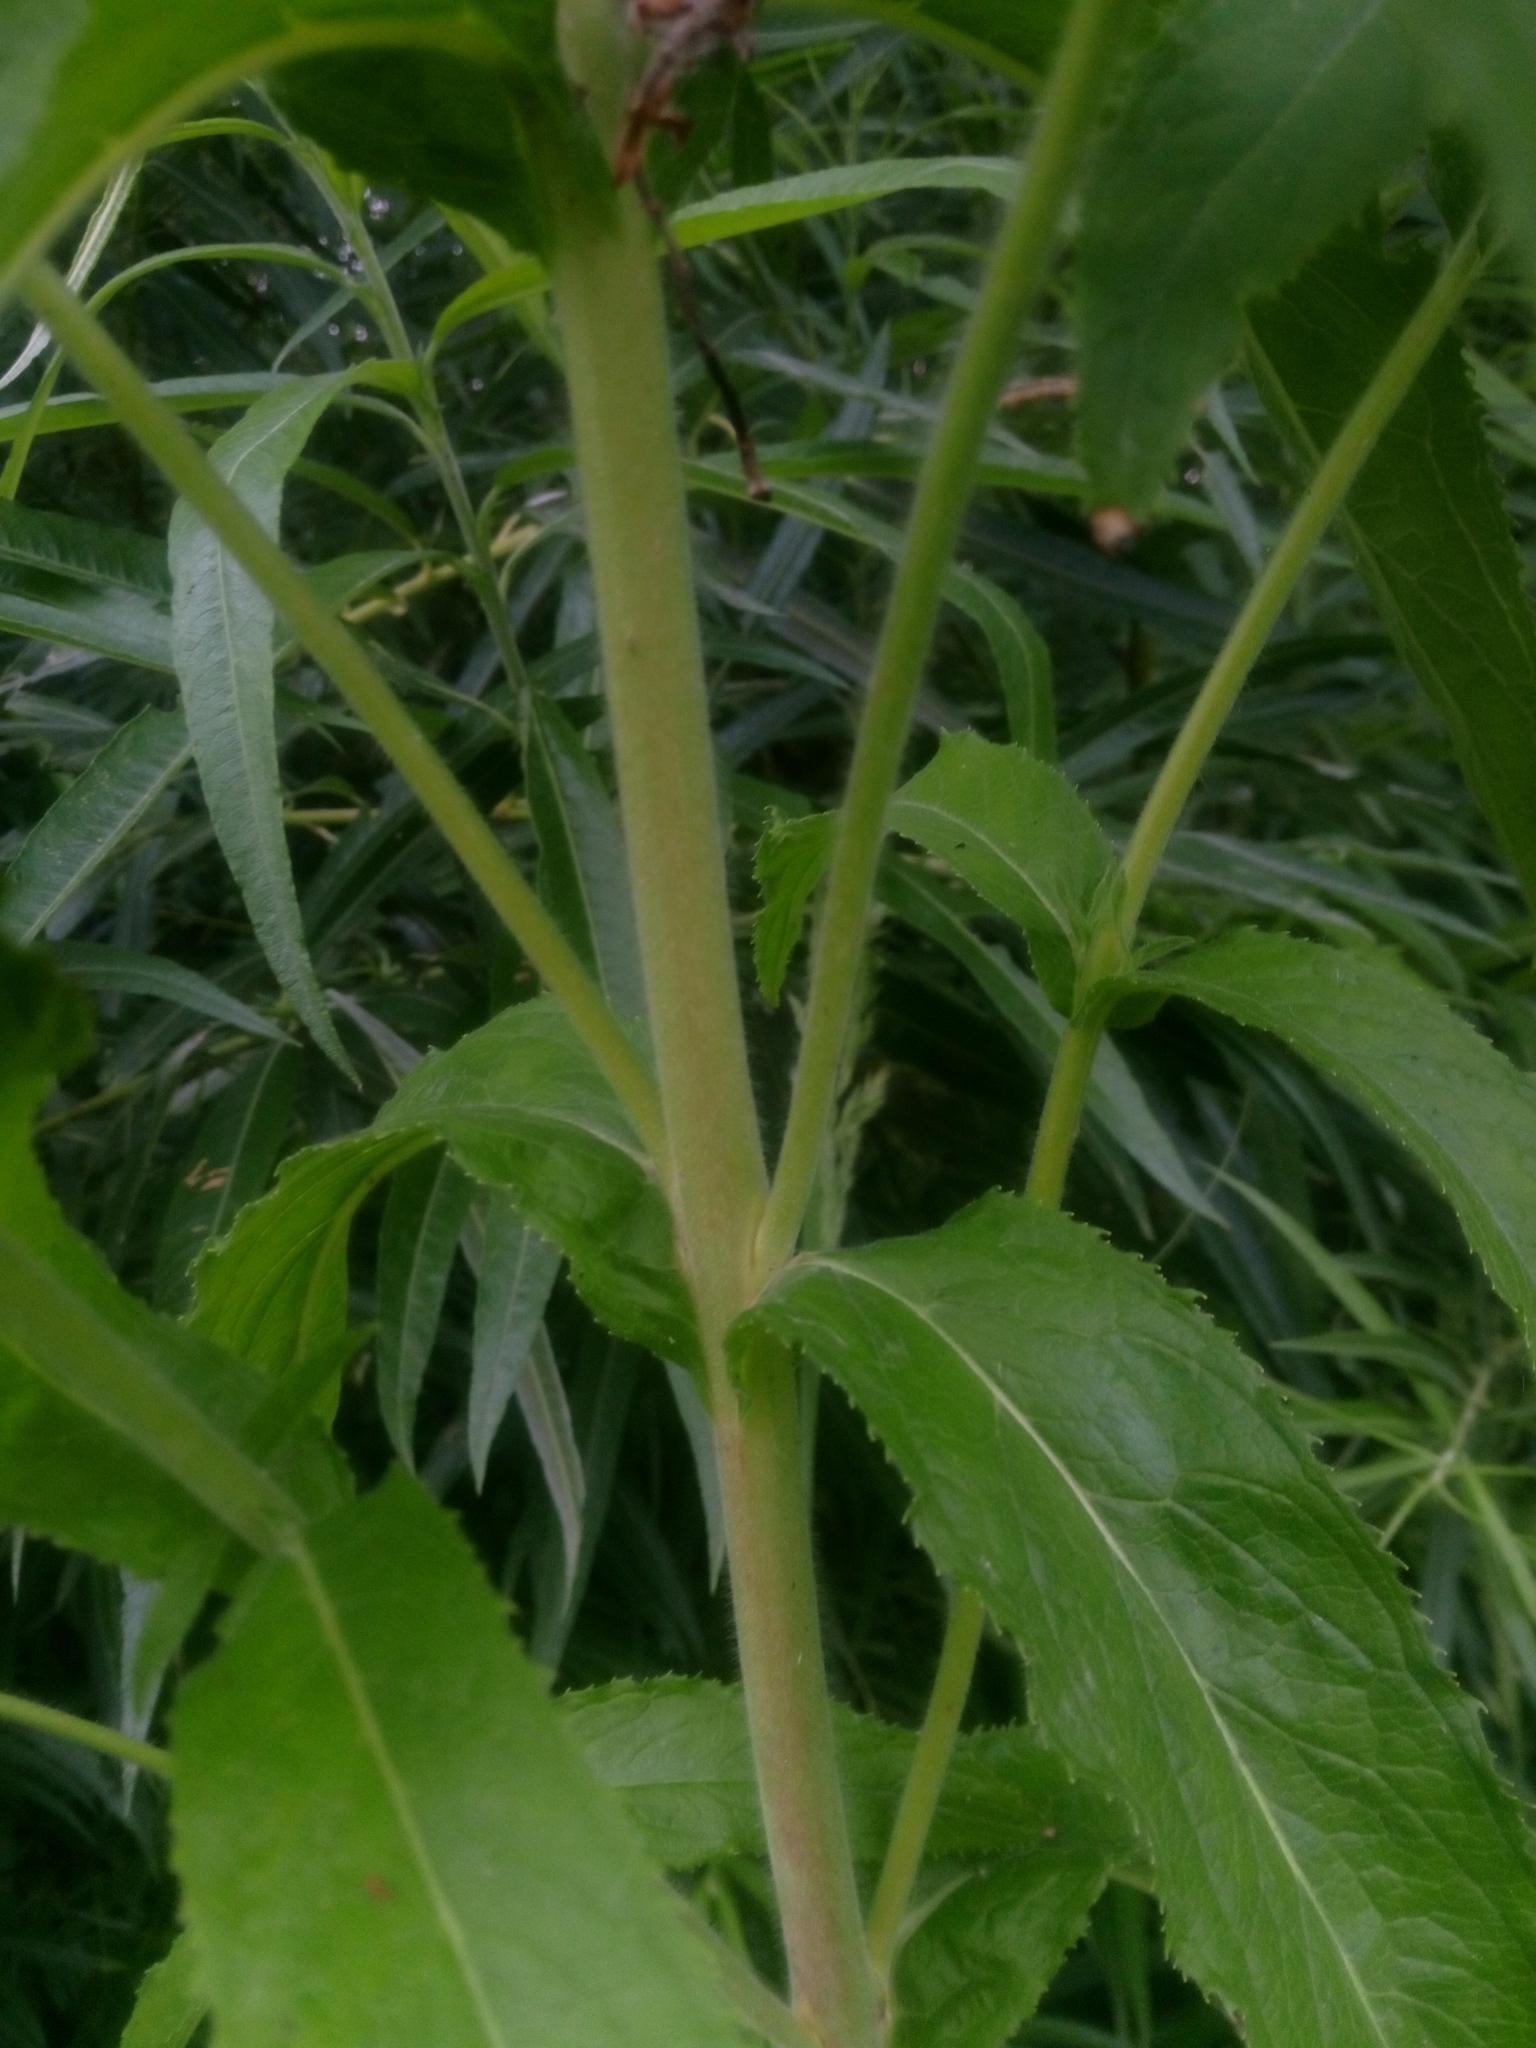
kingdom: Plantae
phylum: Tracheophyta
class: Magnoliopsida
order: Myrtales
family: Onagraceae
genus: Epilobium
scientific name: Epilobium hirsutum
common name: Great willowherb
